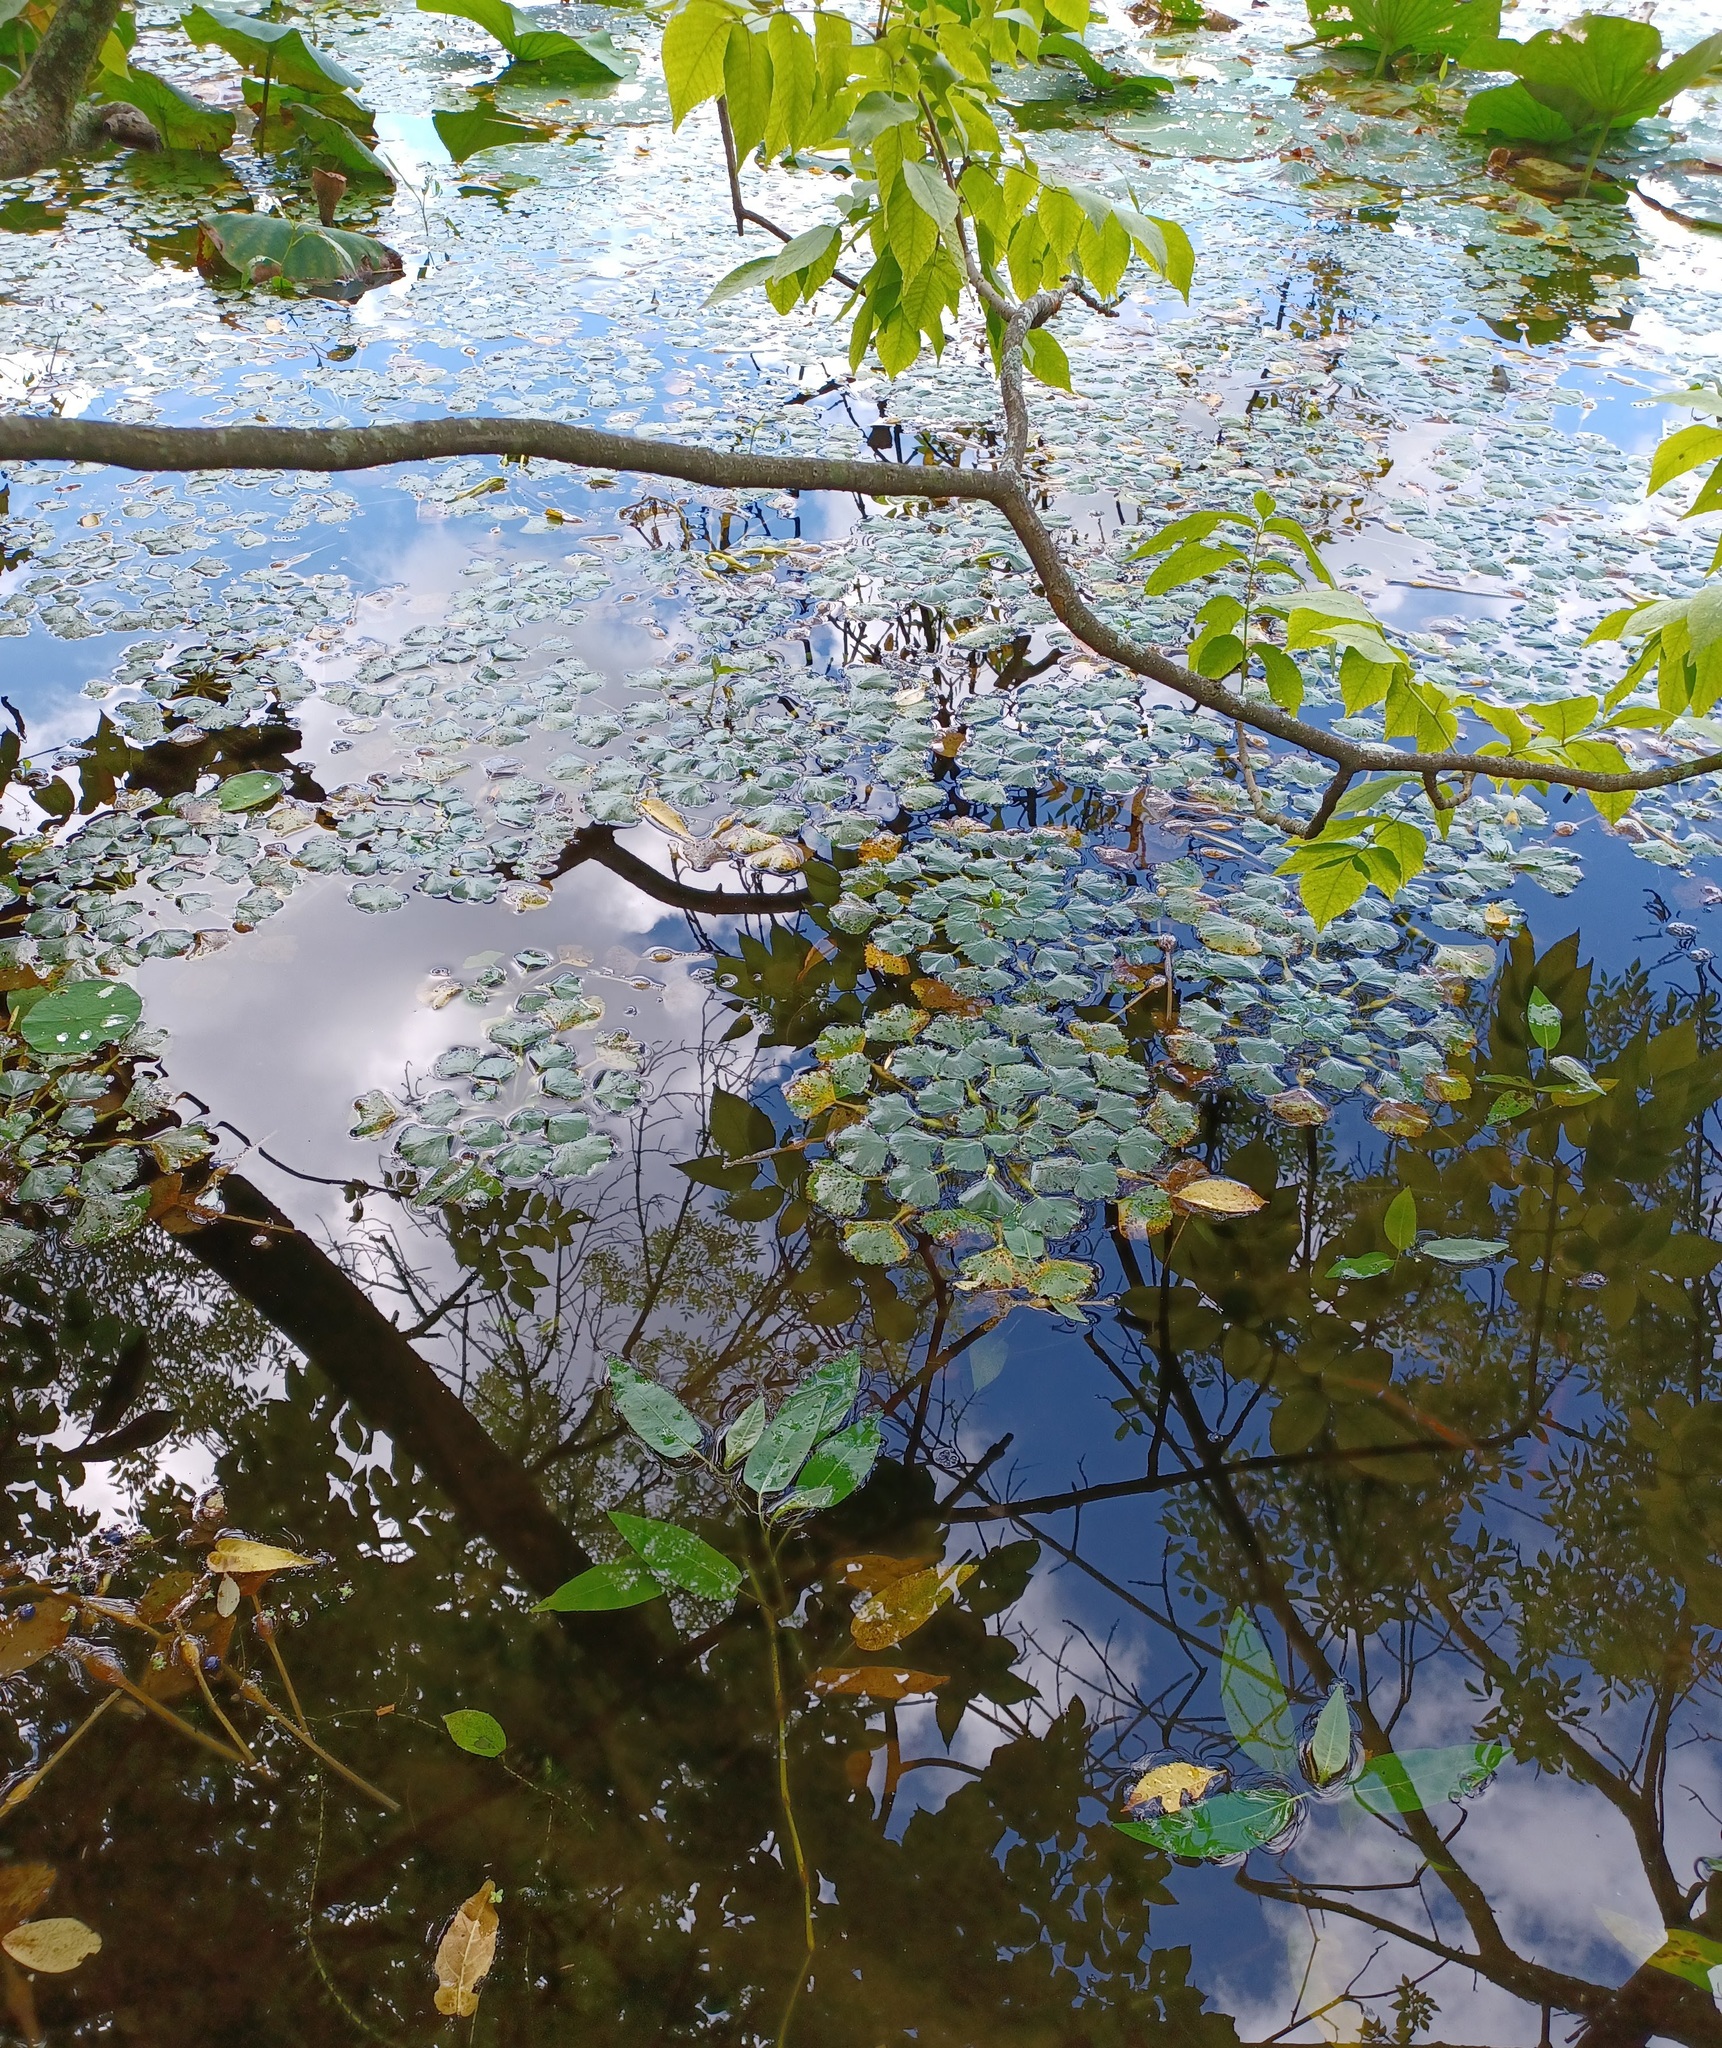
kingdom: Plantae
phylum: Tracheophyta
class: Magnoliopsida
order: Myrtales
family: Lythraceae
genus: Trapa
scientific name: Trapa natans
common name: Water chestnut
